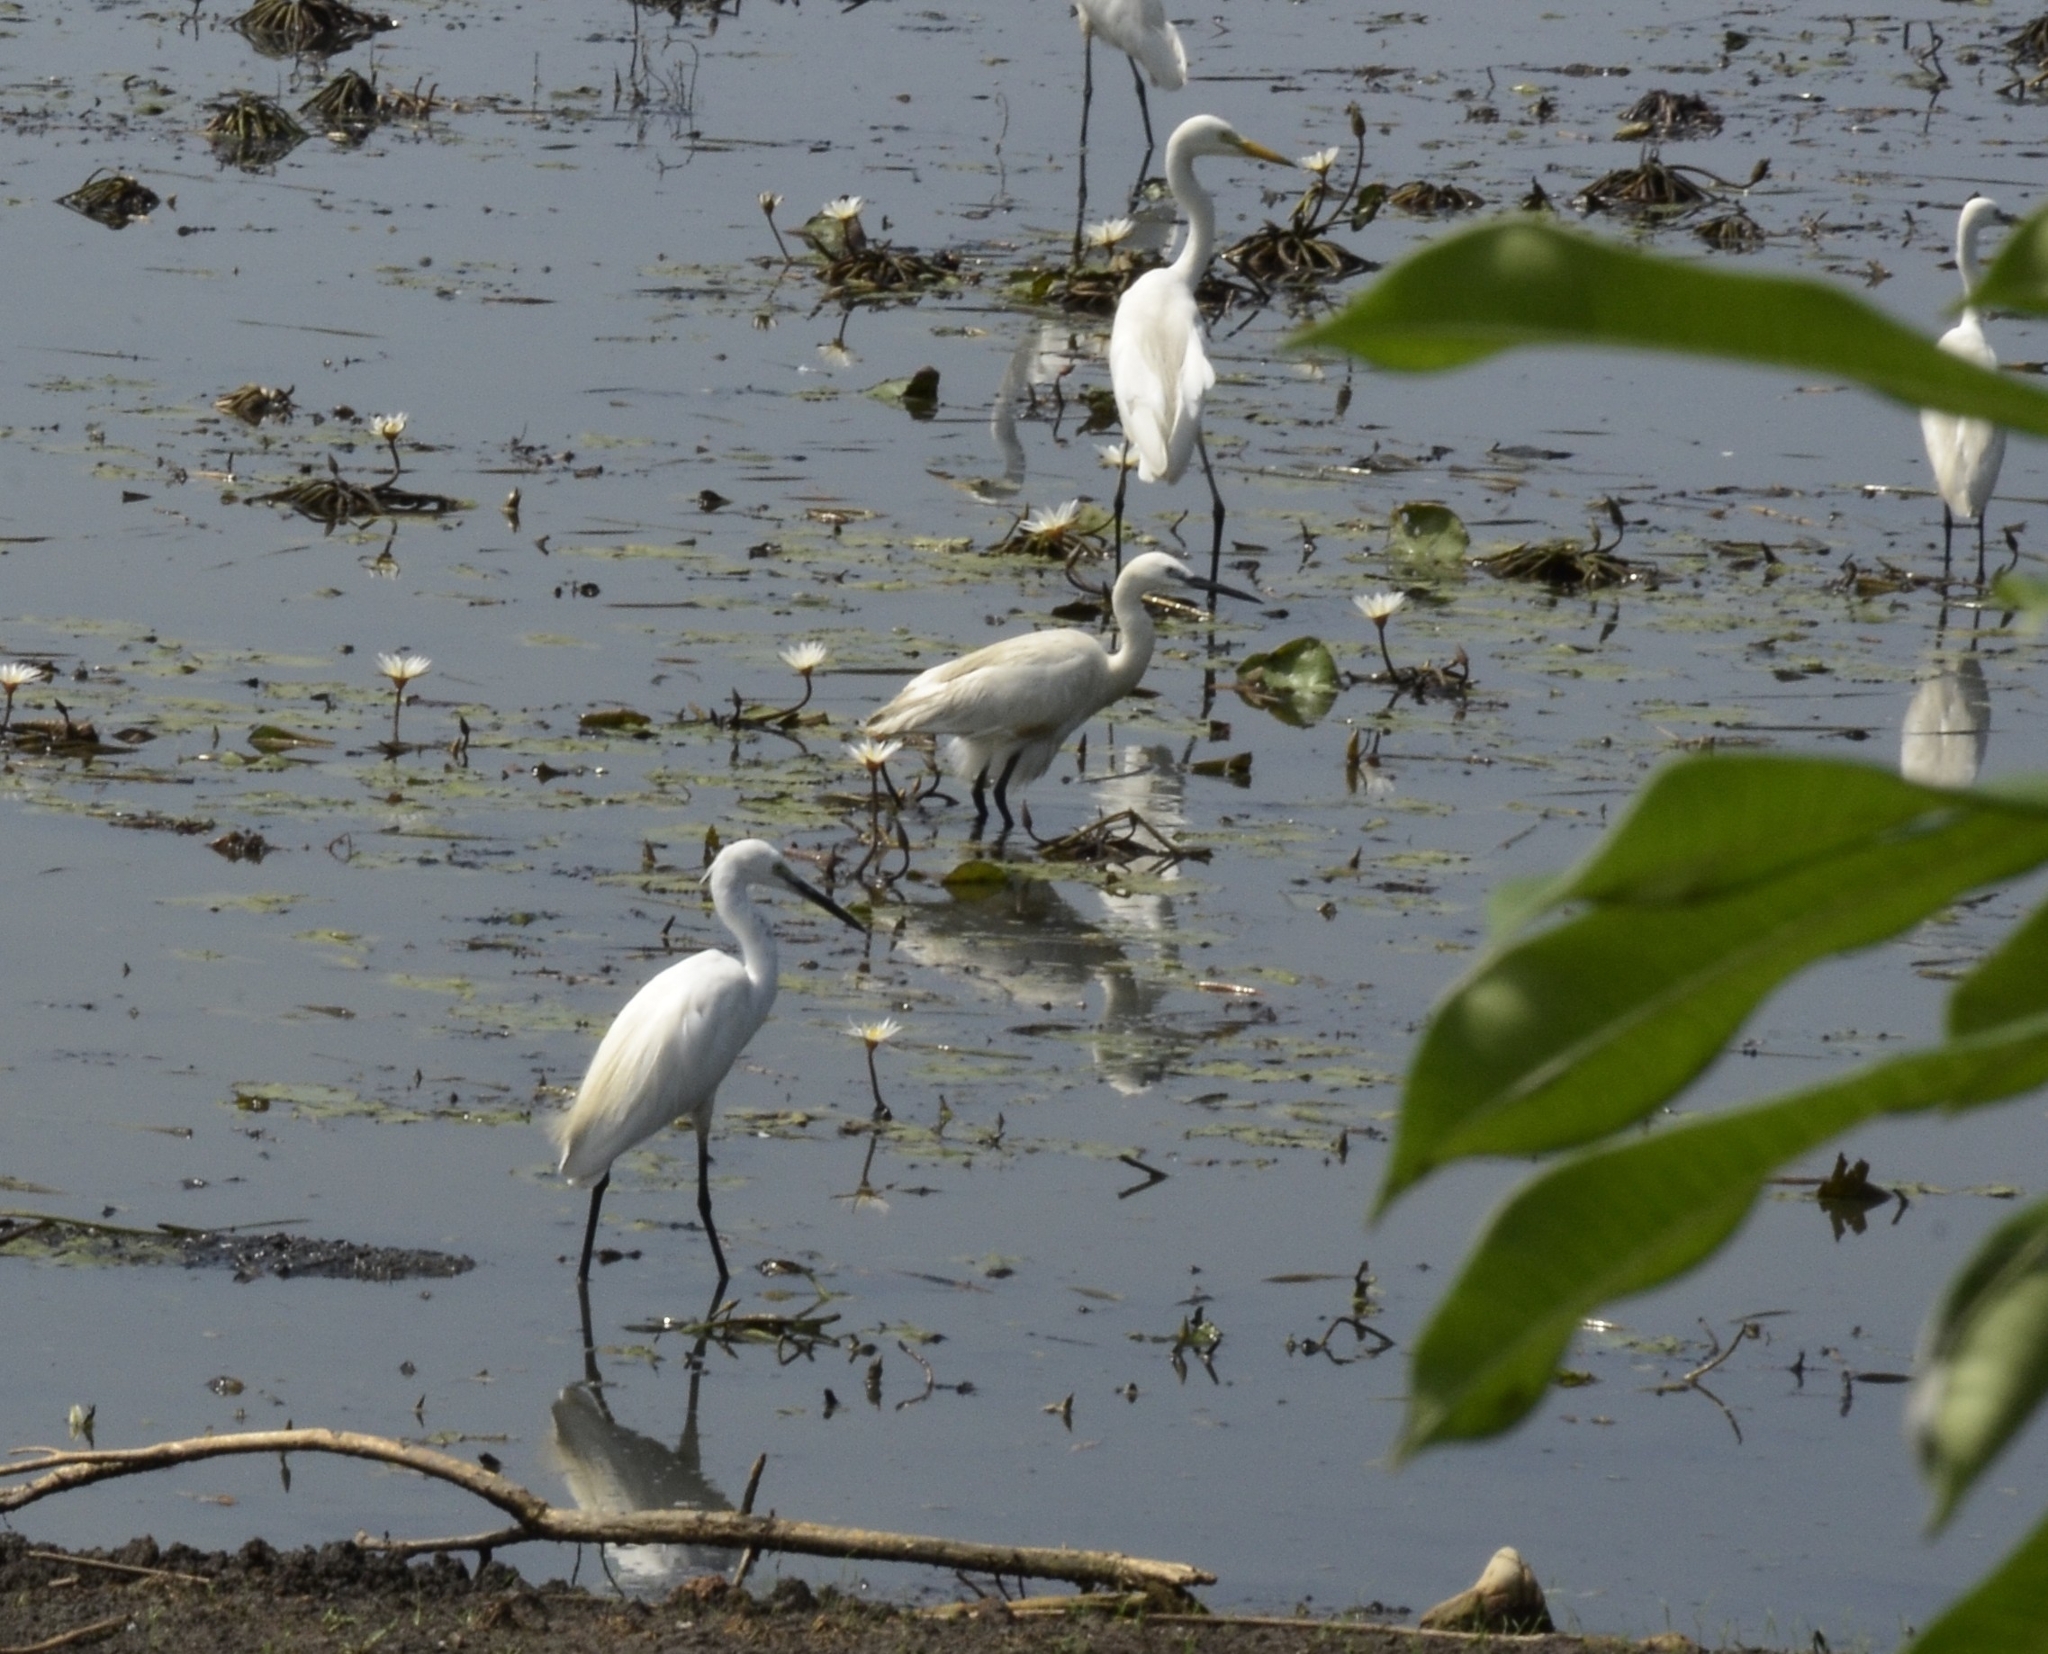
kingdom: Animalia
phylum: Chordata
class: Aves
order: Pelecaniformes
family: Ardeidae
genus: Egretta
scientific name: Egretta garzetta
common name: Little egret
